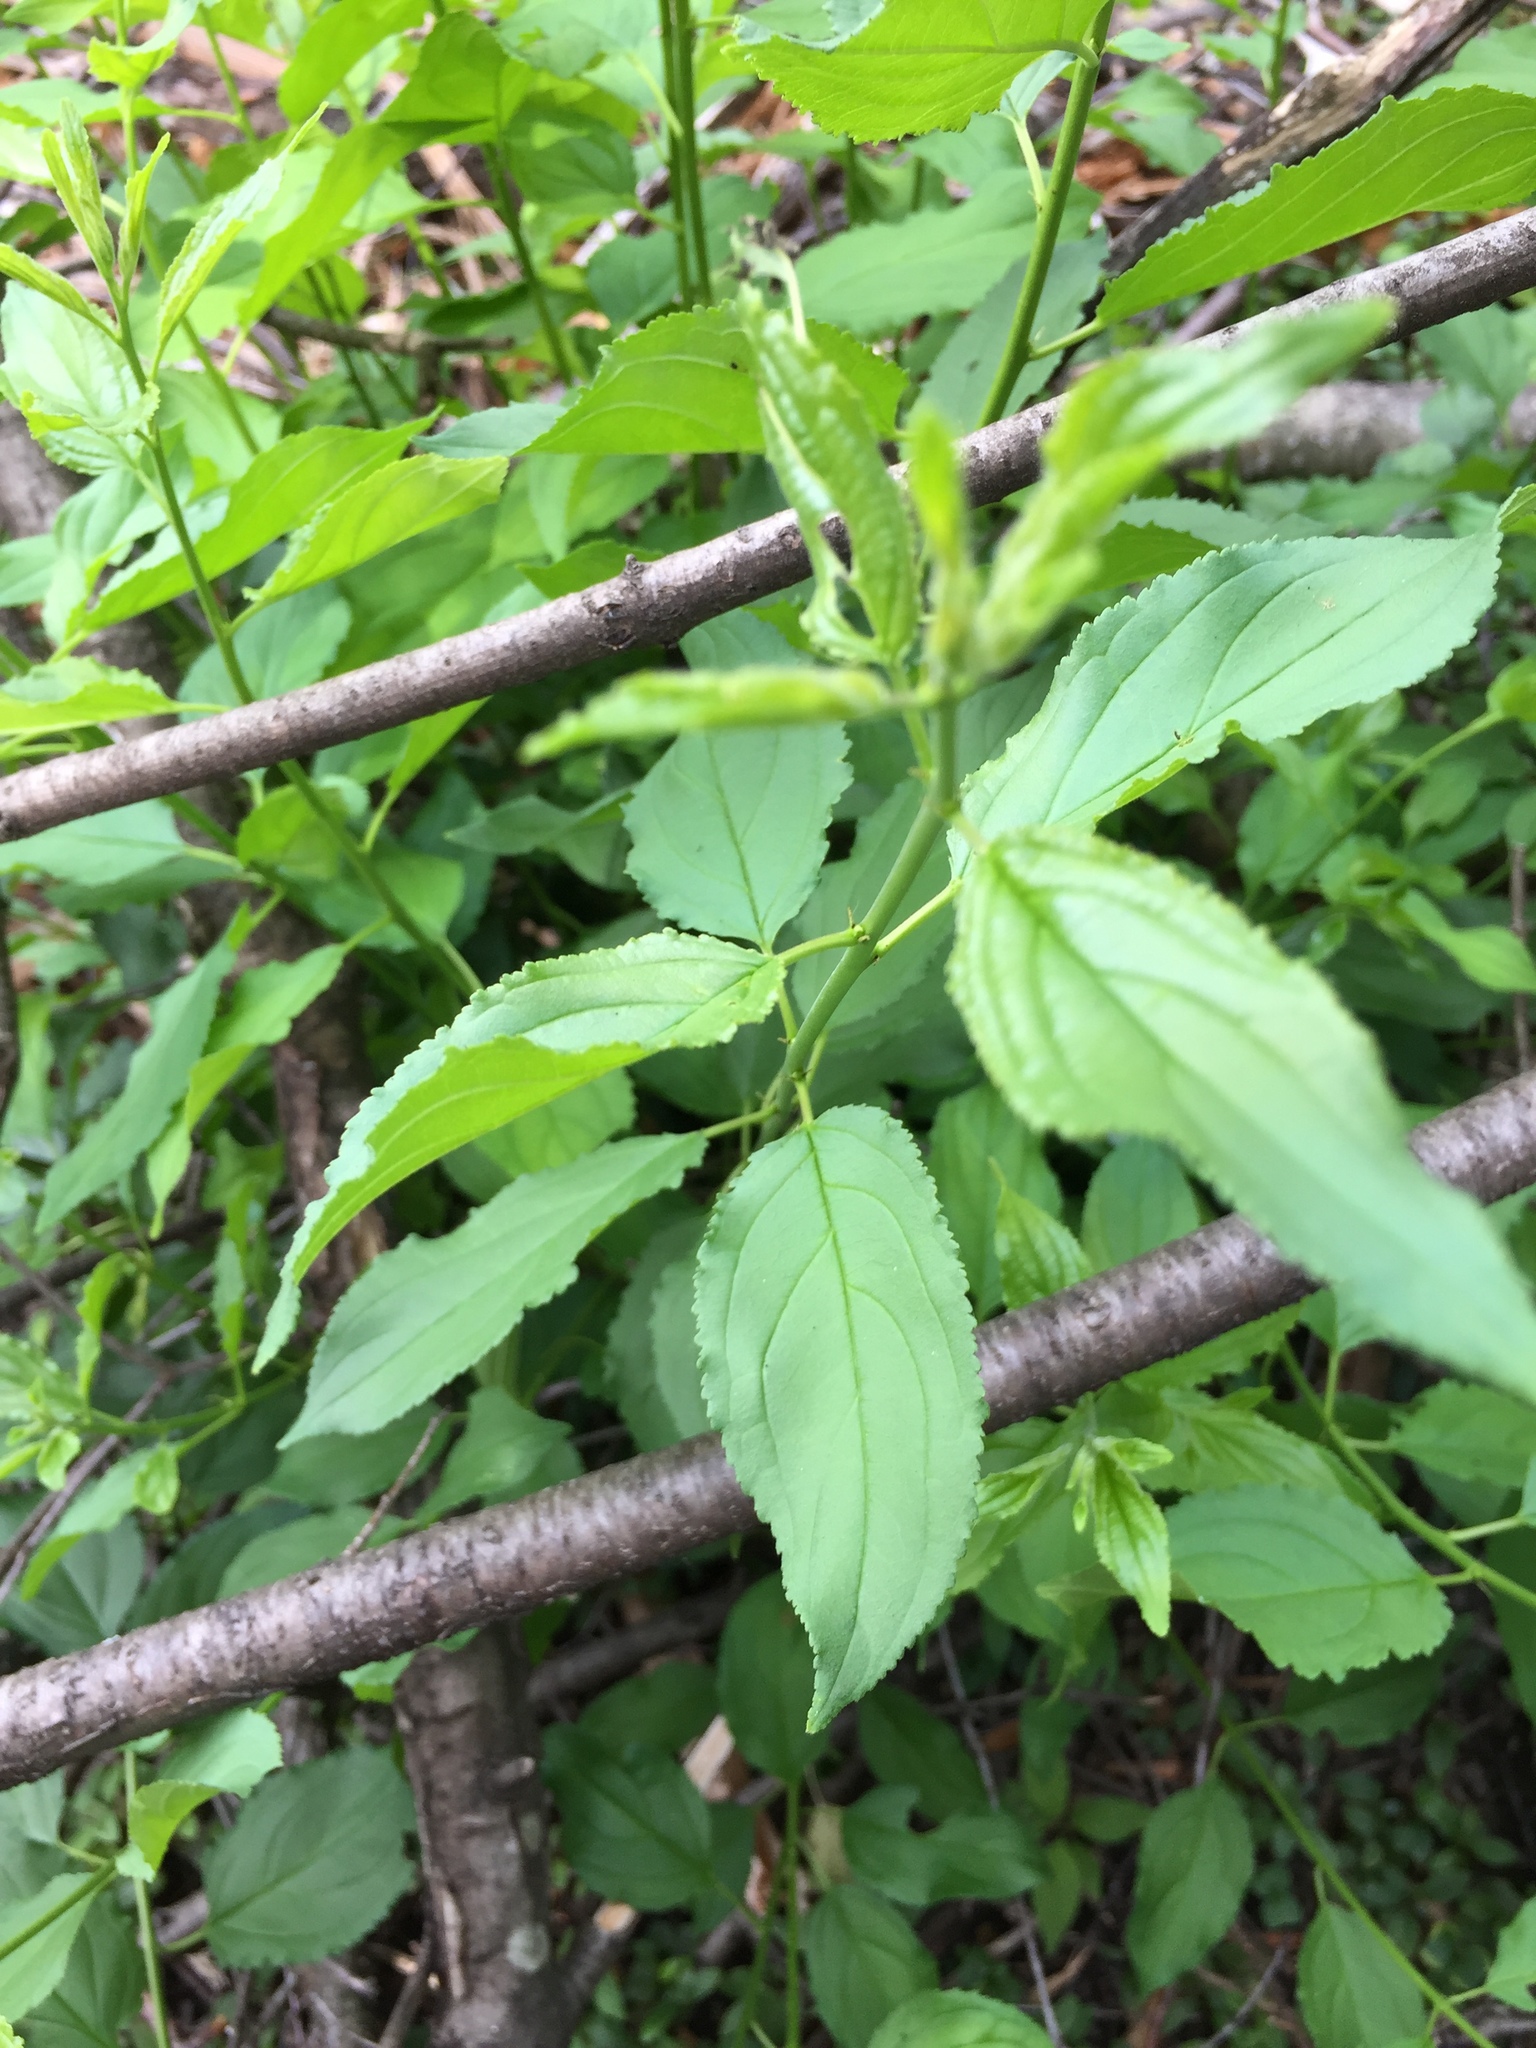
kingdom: Plantae
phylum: Tracheophyta
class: Magnoliopsida
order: Rosales
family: Rhamnaceae
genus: Rhamnus
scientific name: Rhamnus cathartica
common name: Common buckthorn
